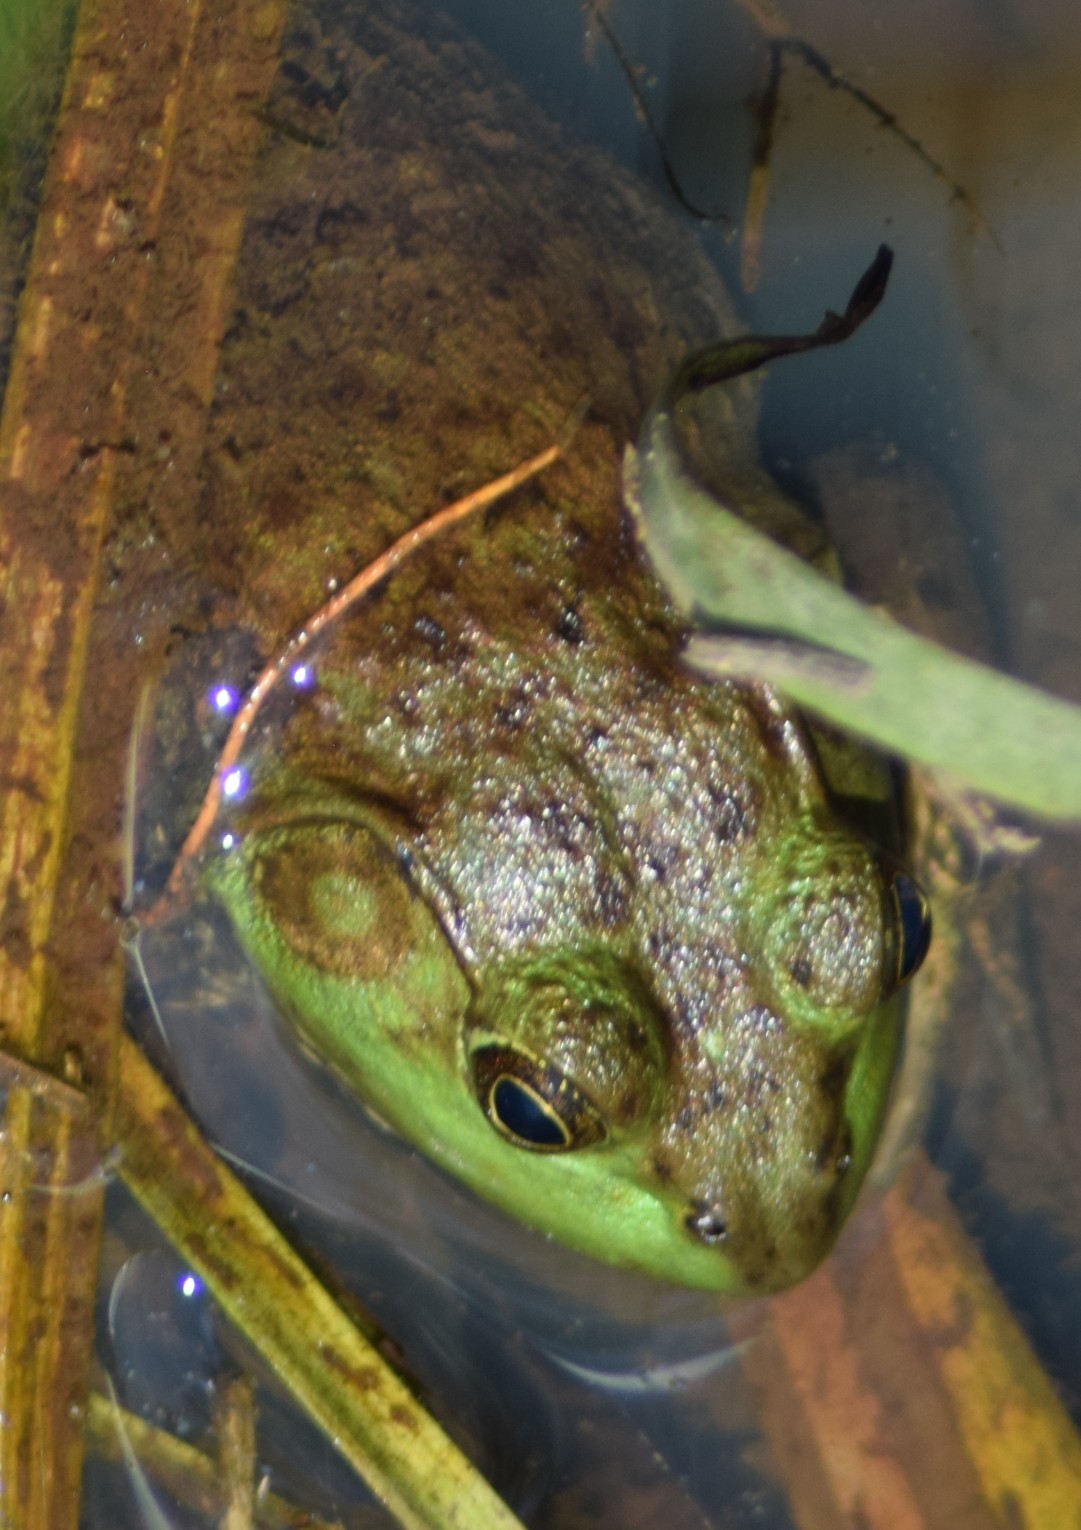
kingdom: Animalia
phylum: Chordata
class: Amphibia
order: Anura
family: Ranidae
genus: Lithobates
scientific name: Lithobates catesbeianus
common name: American bullfrog
